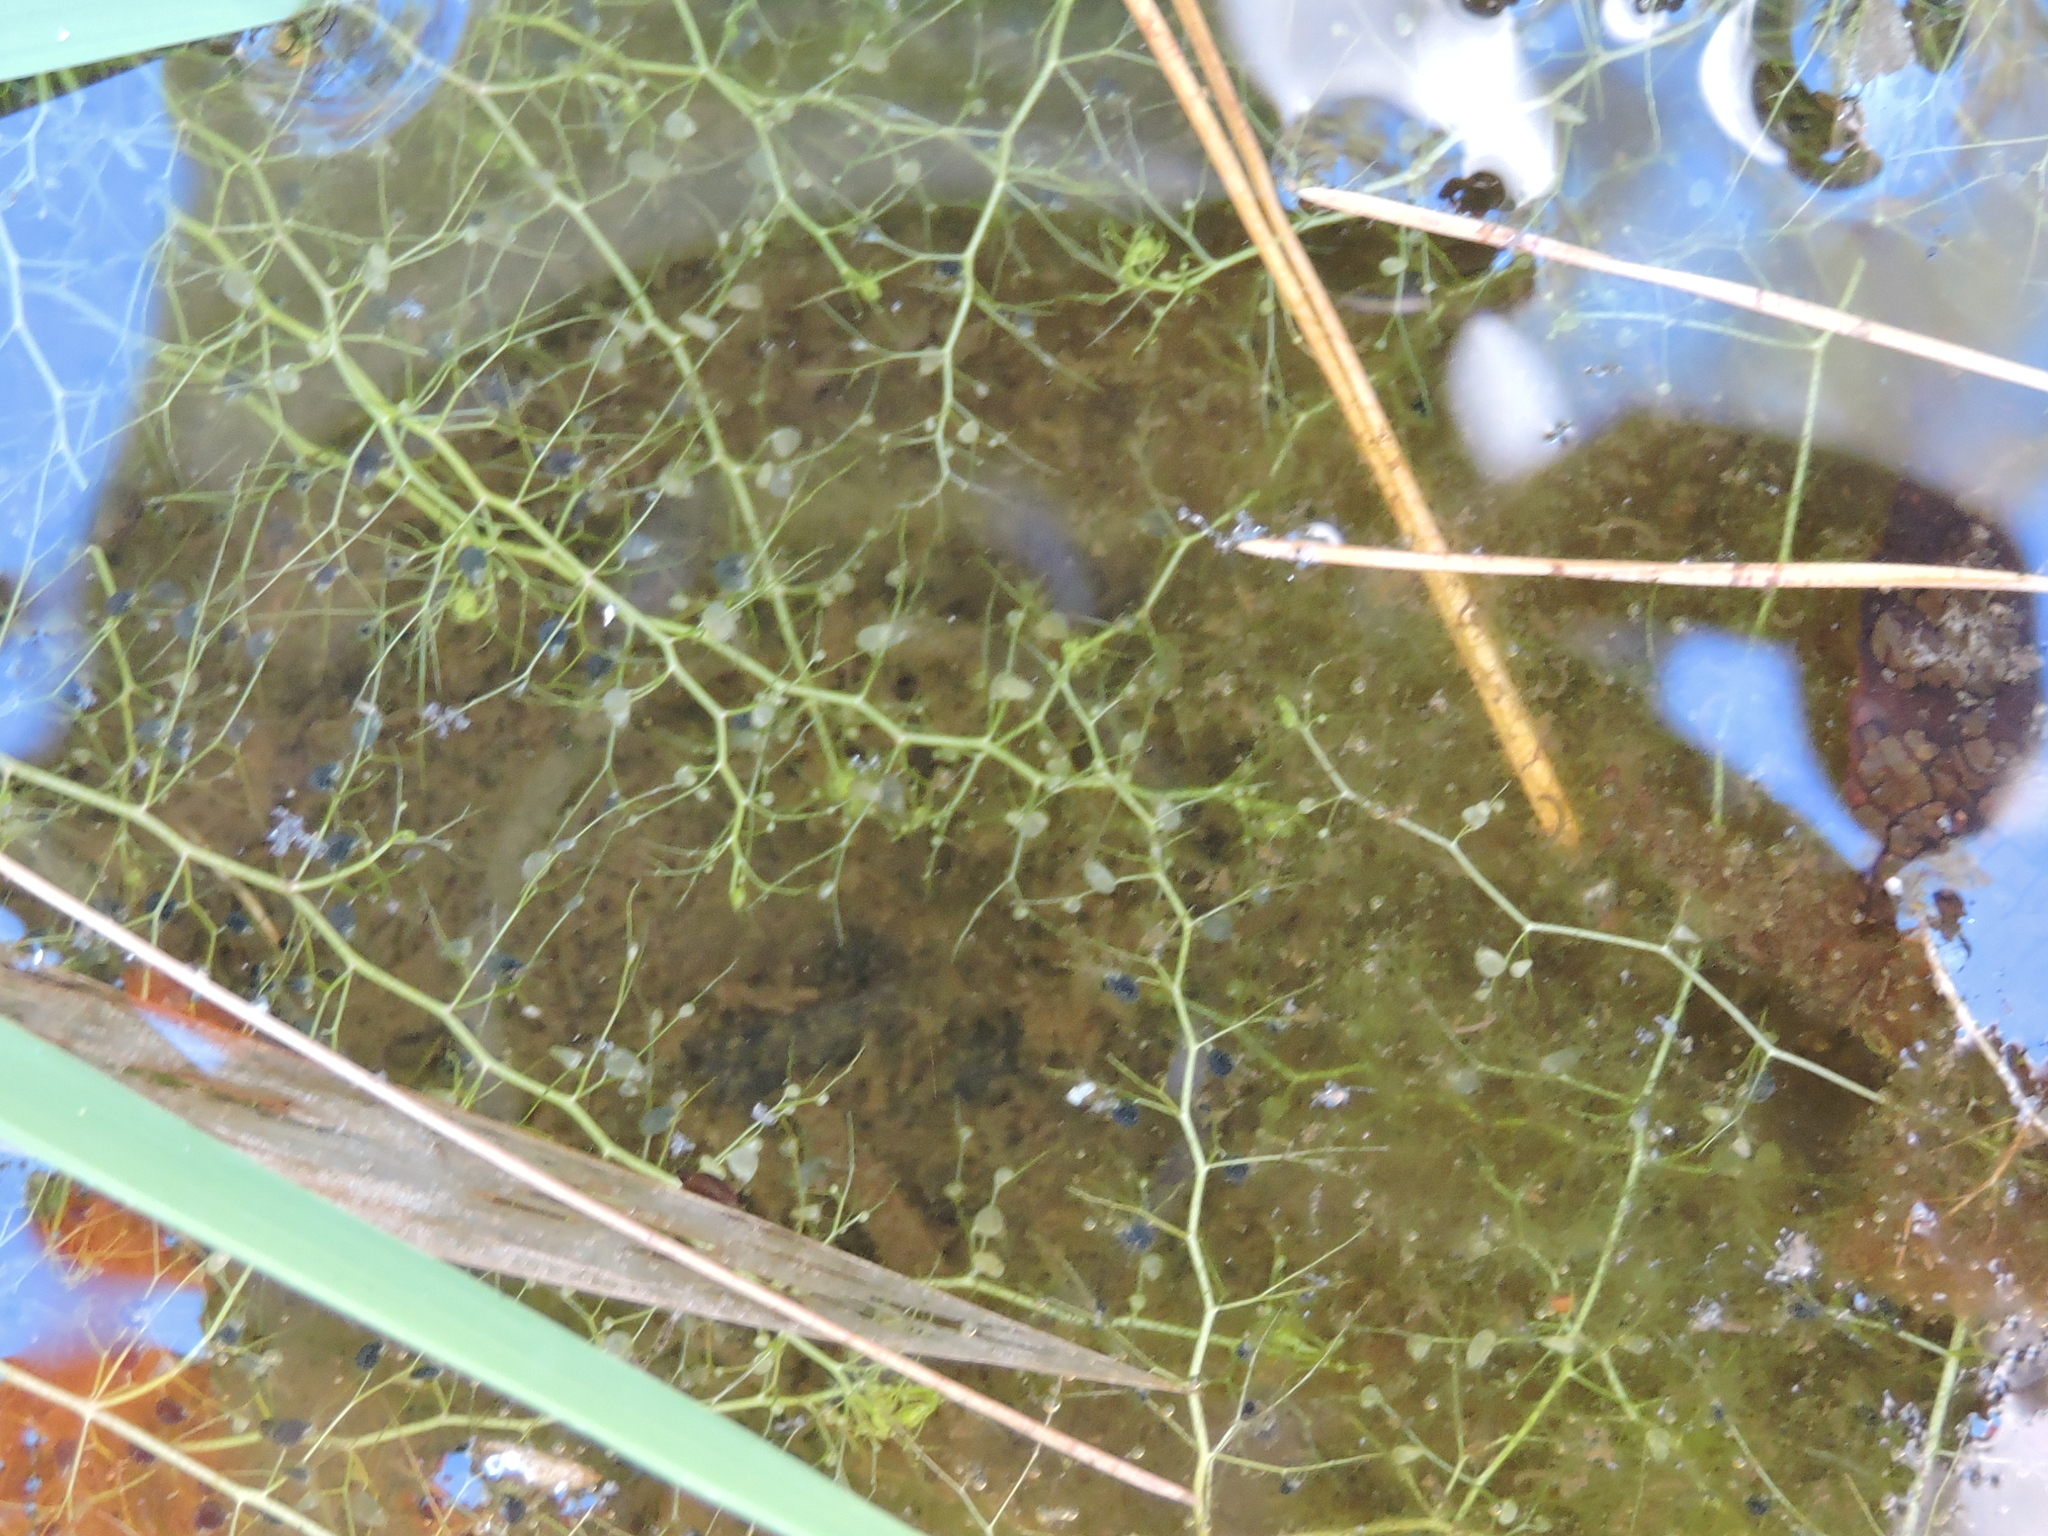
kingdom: Plantae
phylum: Tracheophyta
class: Magnoliopsida
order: Lamiales
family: Lentibulariaceae
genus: Utricularia
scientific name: Utricularia gibba
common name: Humped bladderwort
